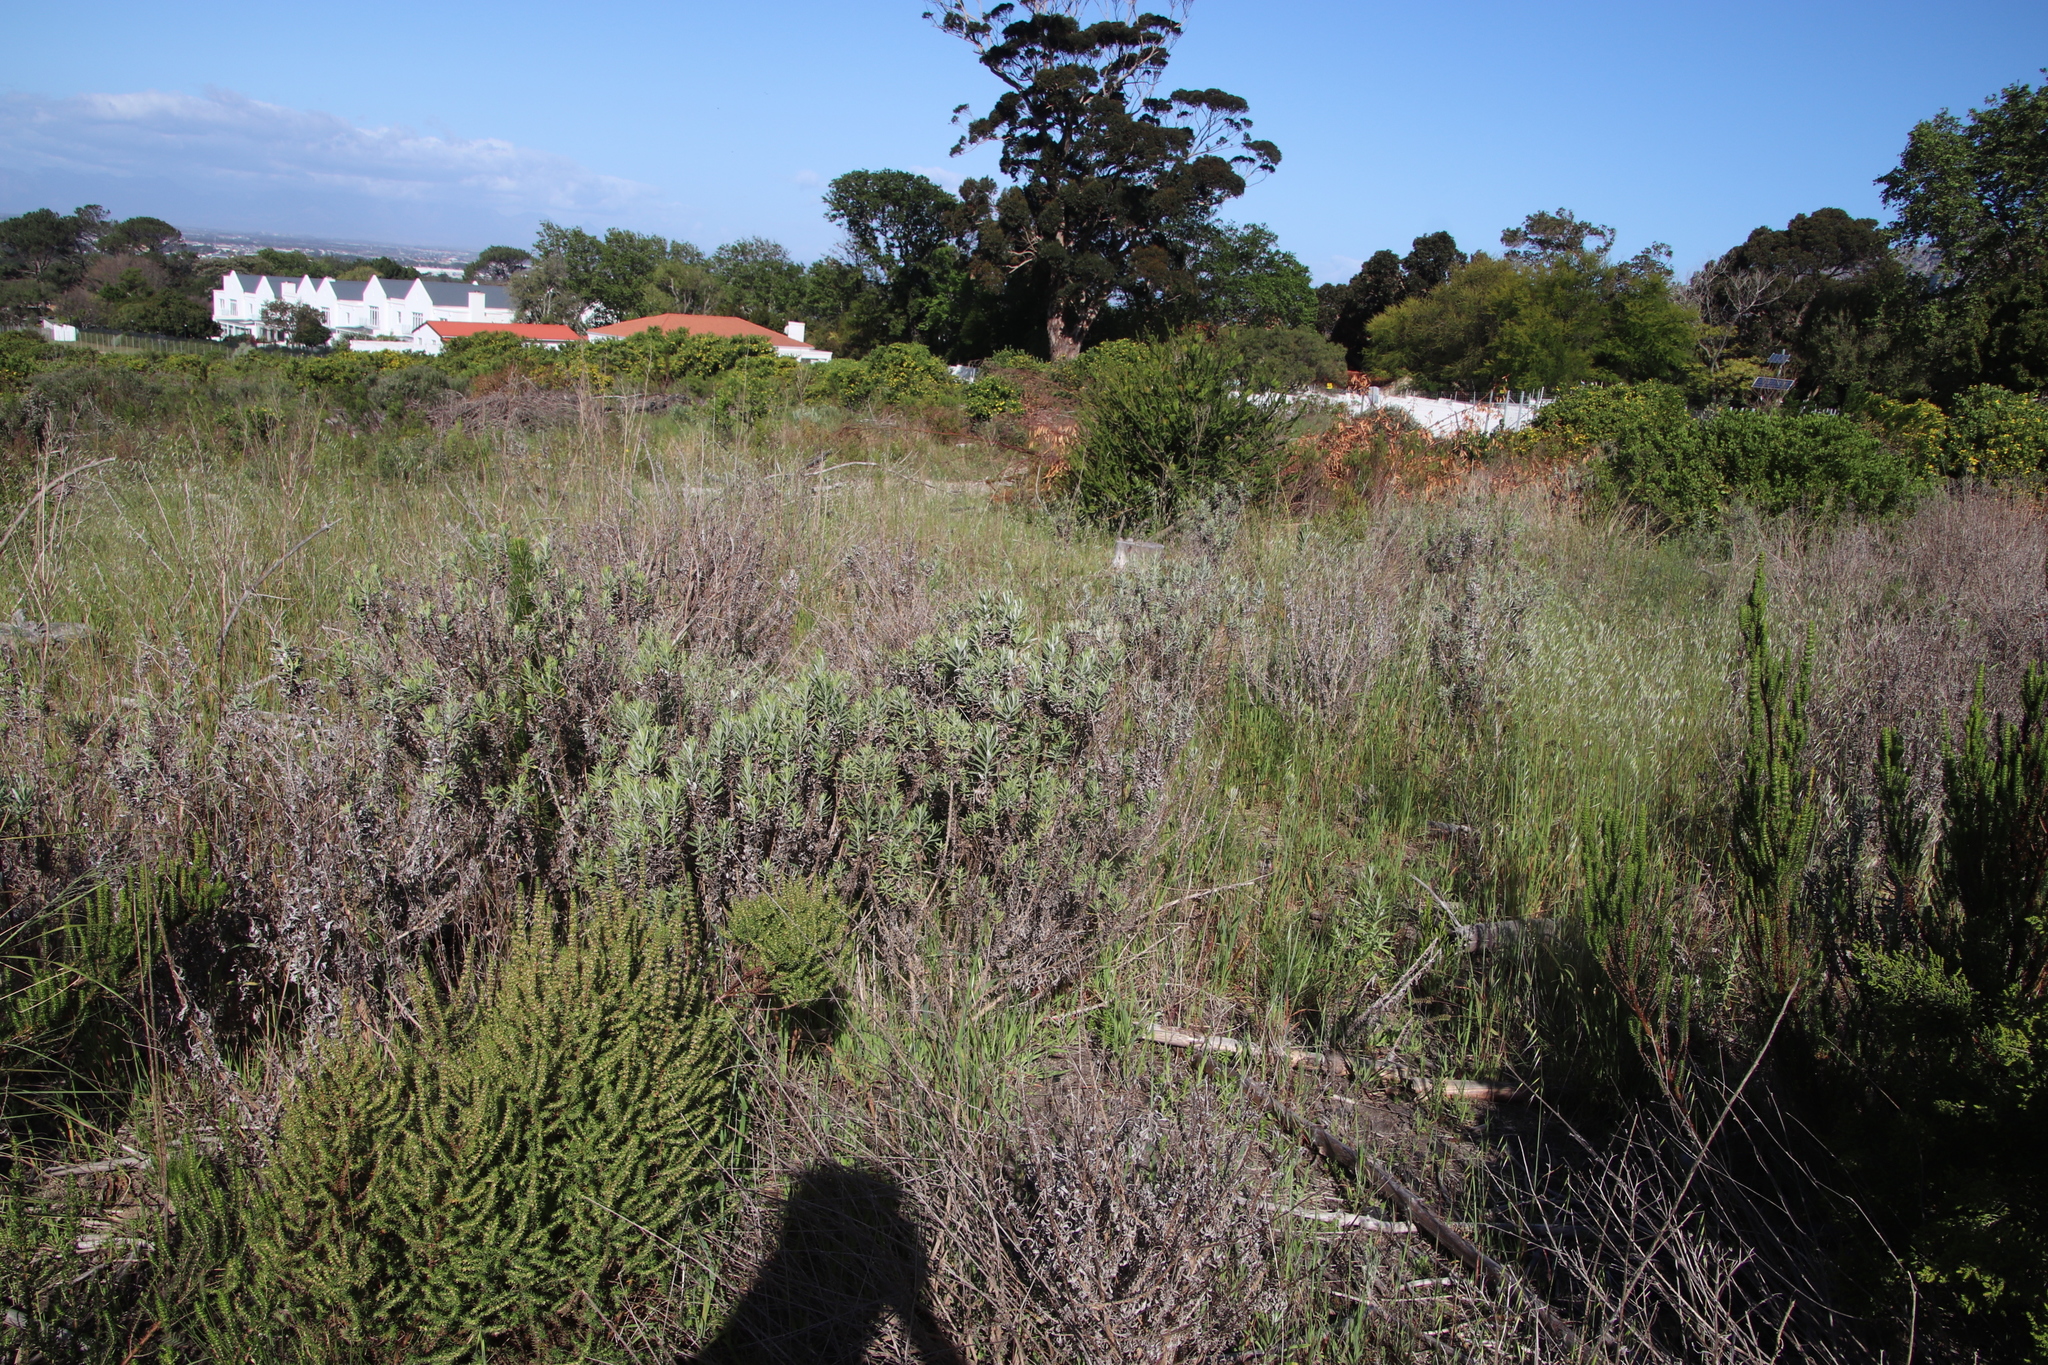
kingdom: Plantae
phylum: Tracheophyta
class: Magnoliopsida
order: Asterales
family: Asteraceae
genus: Senecio
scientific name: Senecio pterophorus
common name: Shoddy ragwort
